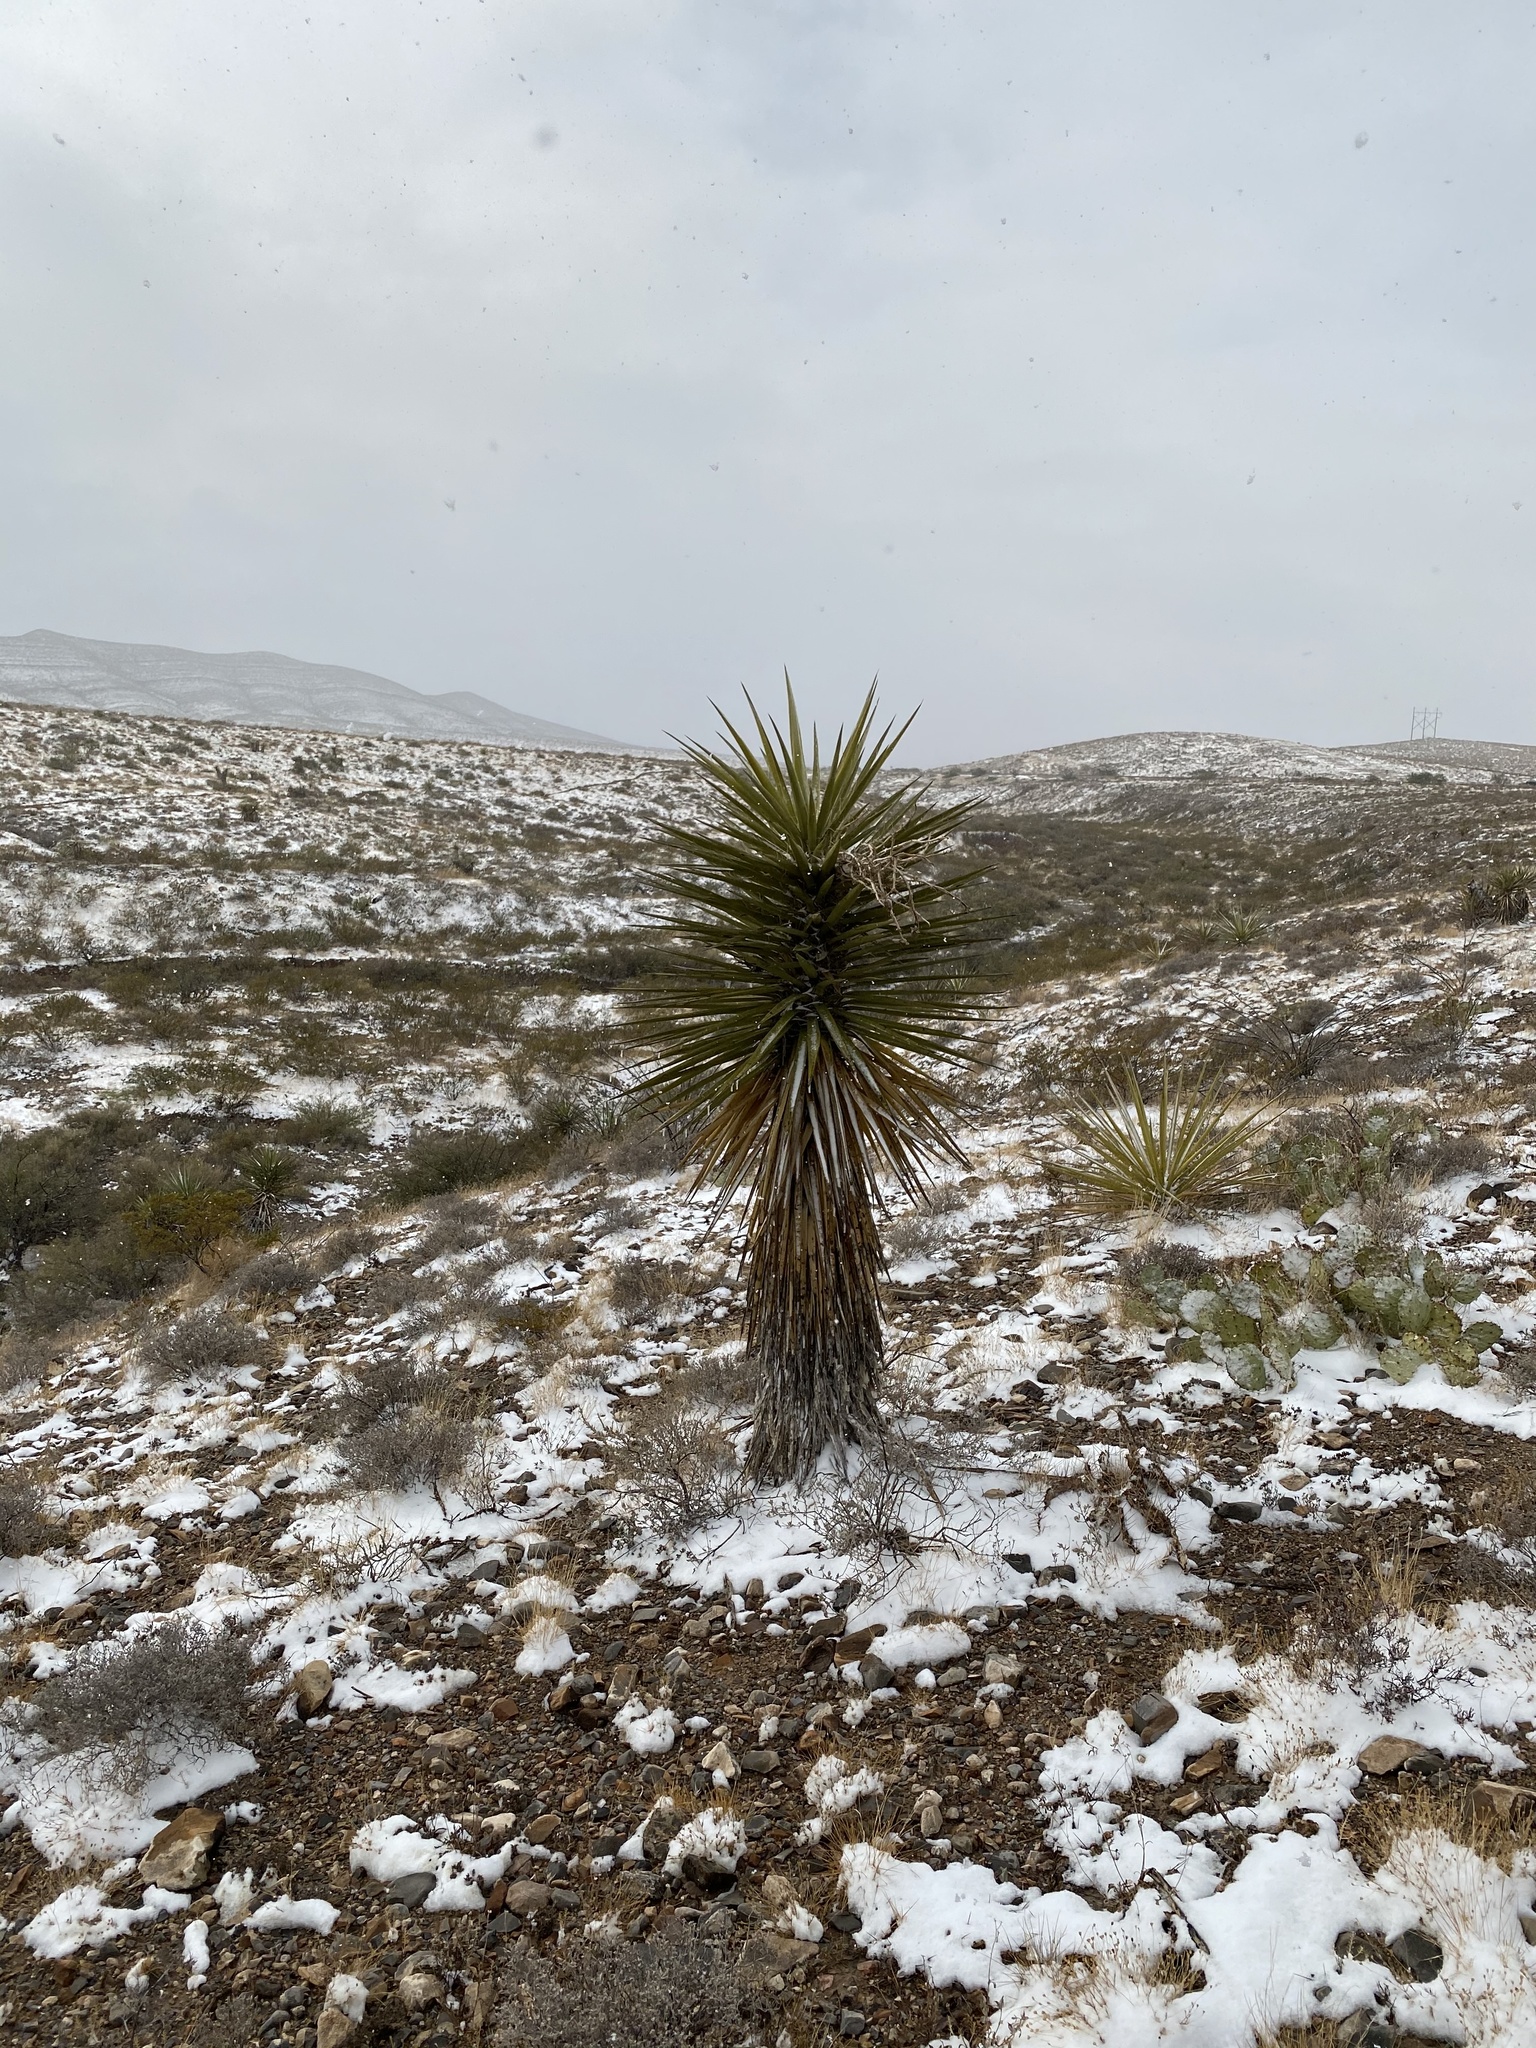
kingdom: Plantae
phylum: Tracheophyta
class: Liliopsida
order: Asparagales
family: Asparagaceae
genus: Yucca
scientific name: Yucca treculiana
